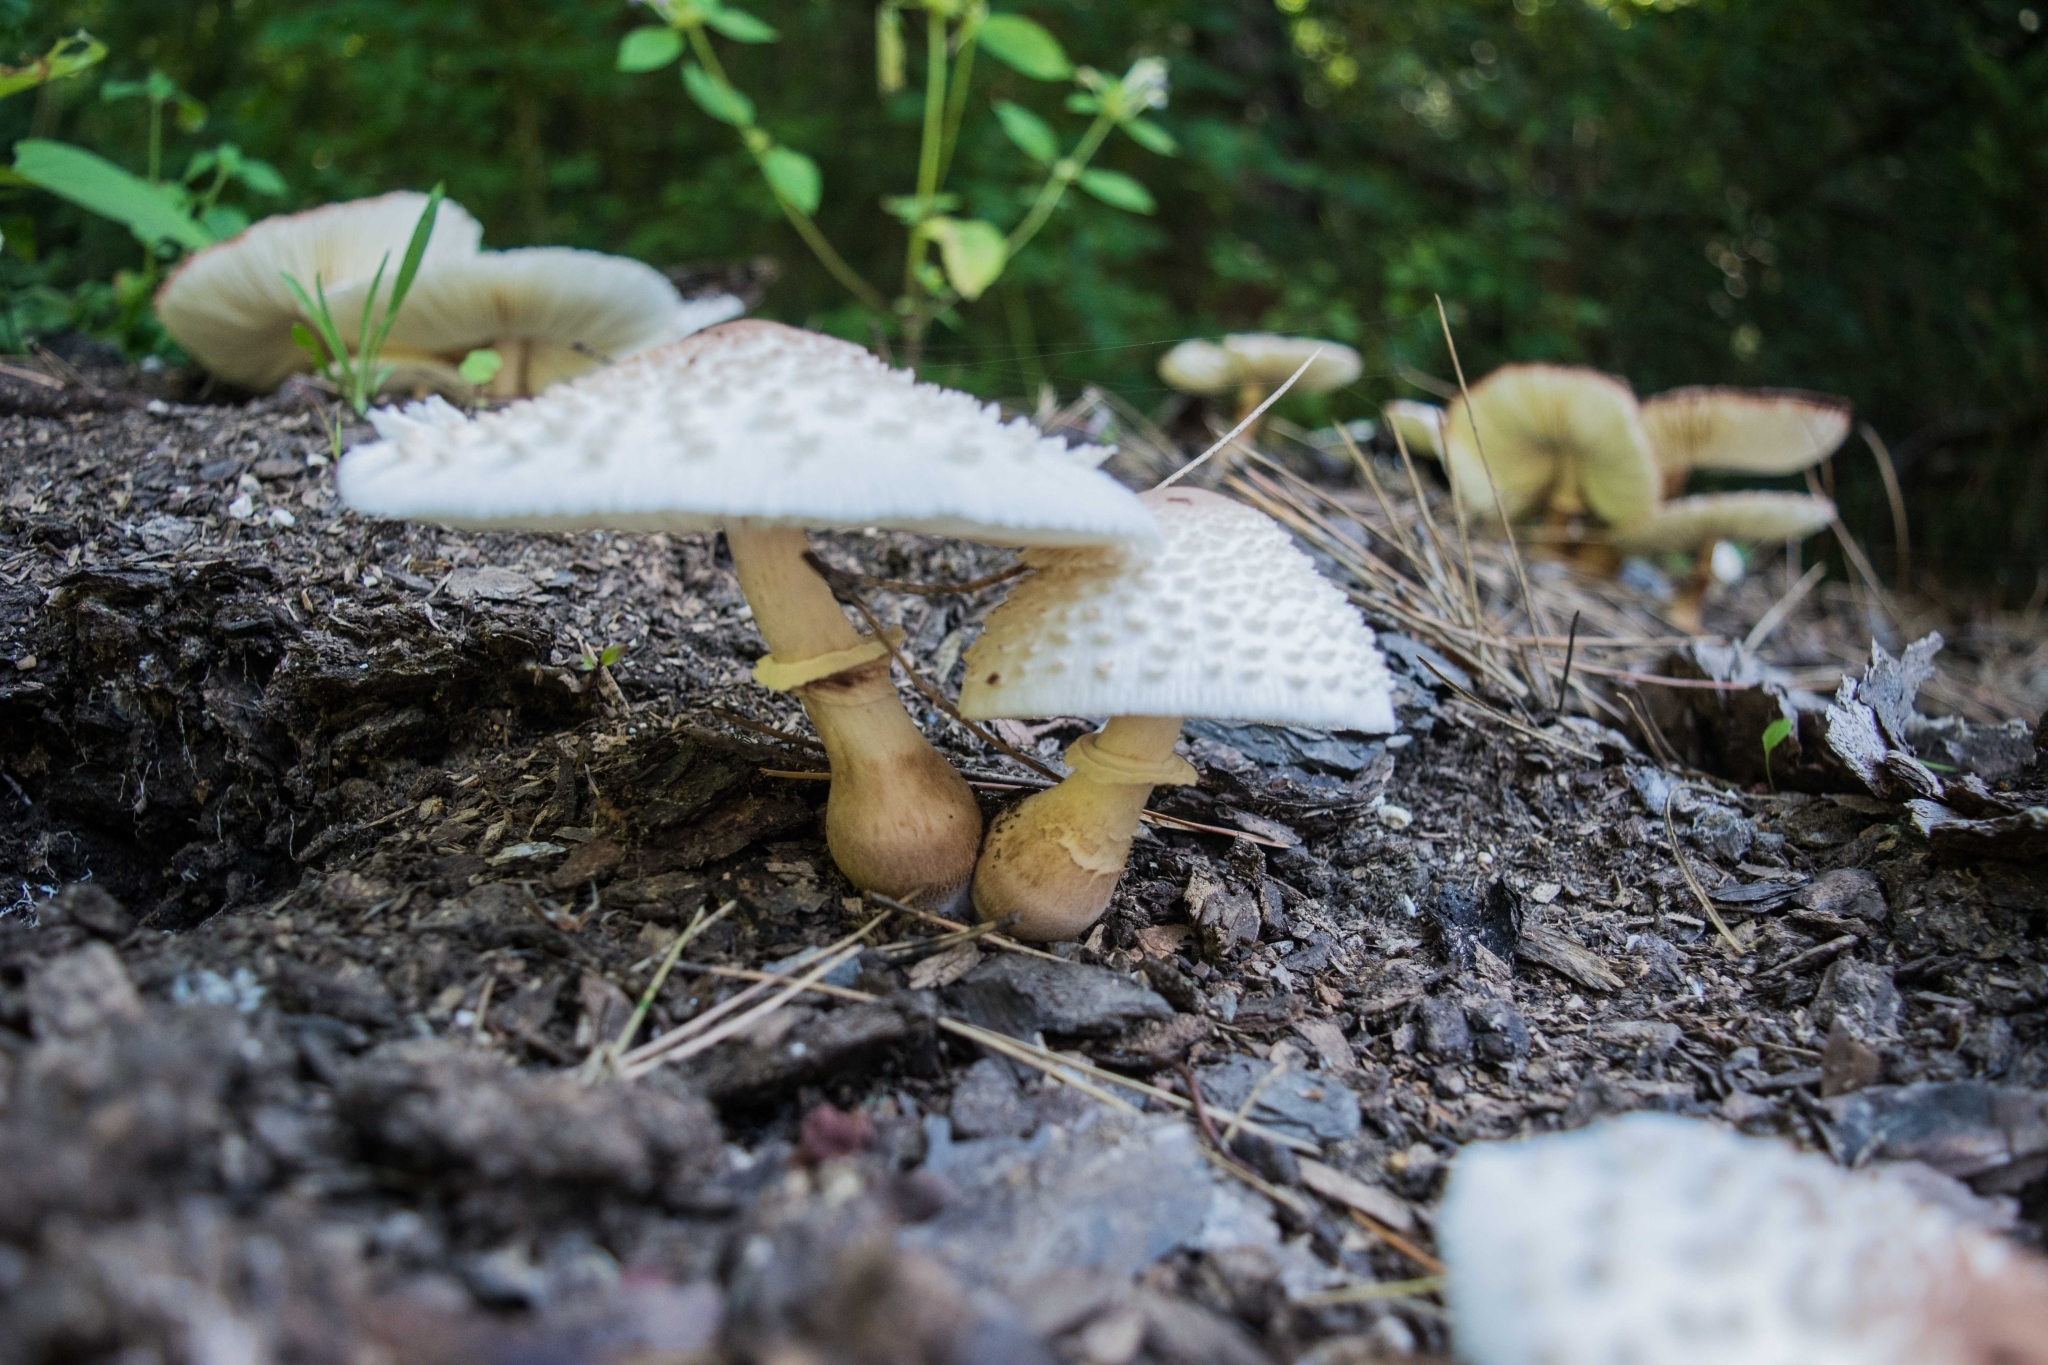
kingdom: Fungi
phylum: Basidiomycota
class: Agaricomycetes
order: Agaricales
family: Agaricaceae
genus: Leucoagaricus
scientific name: Leucoagaricus americanus
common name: Reddening lepiota
